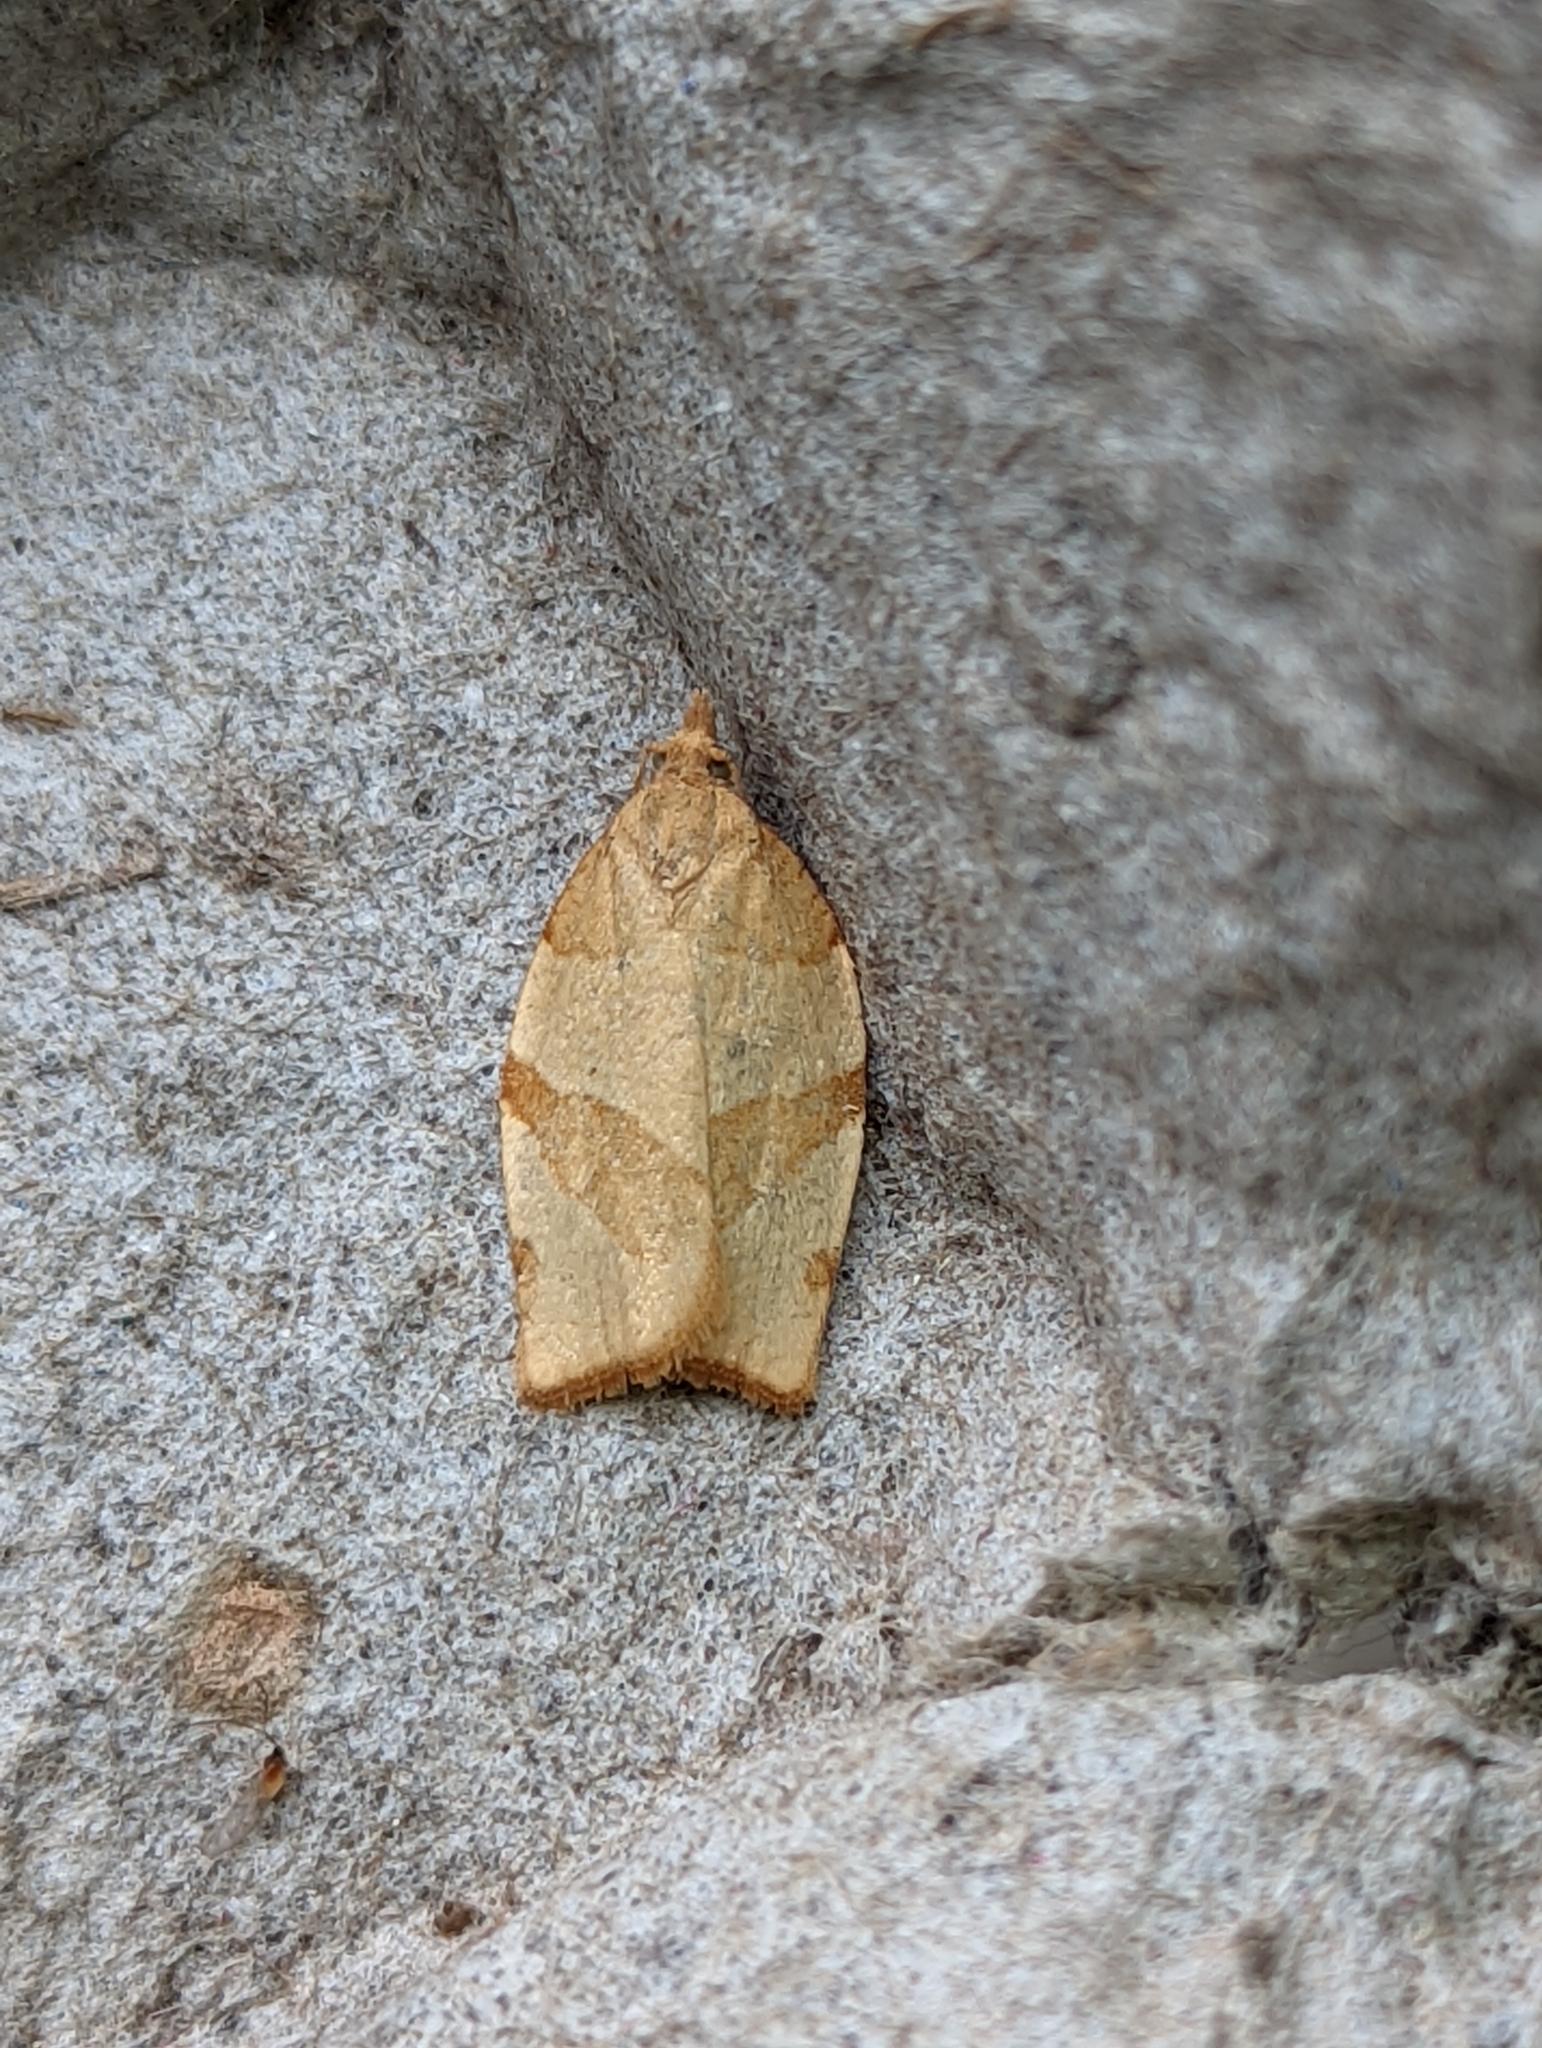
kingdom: Animalia
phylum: Arthropoda
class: Insecta
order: Lepidoptera
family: Tortricidae
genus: Pandemis
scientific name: Pandemis cerasana
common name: Barred fruit-tree tortrix
